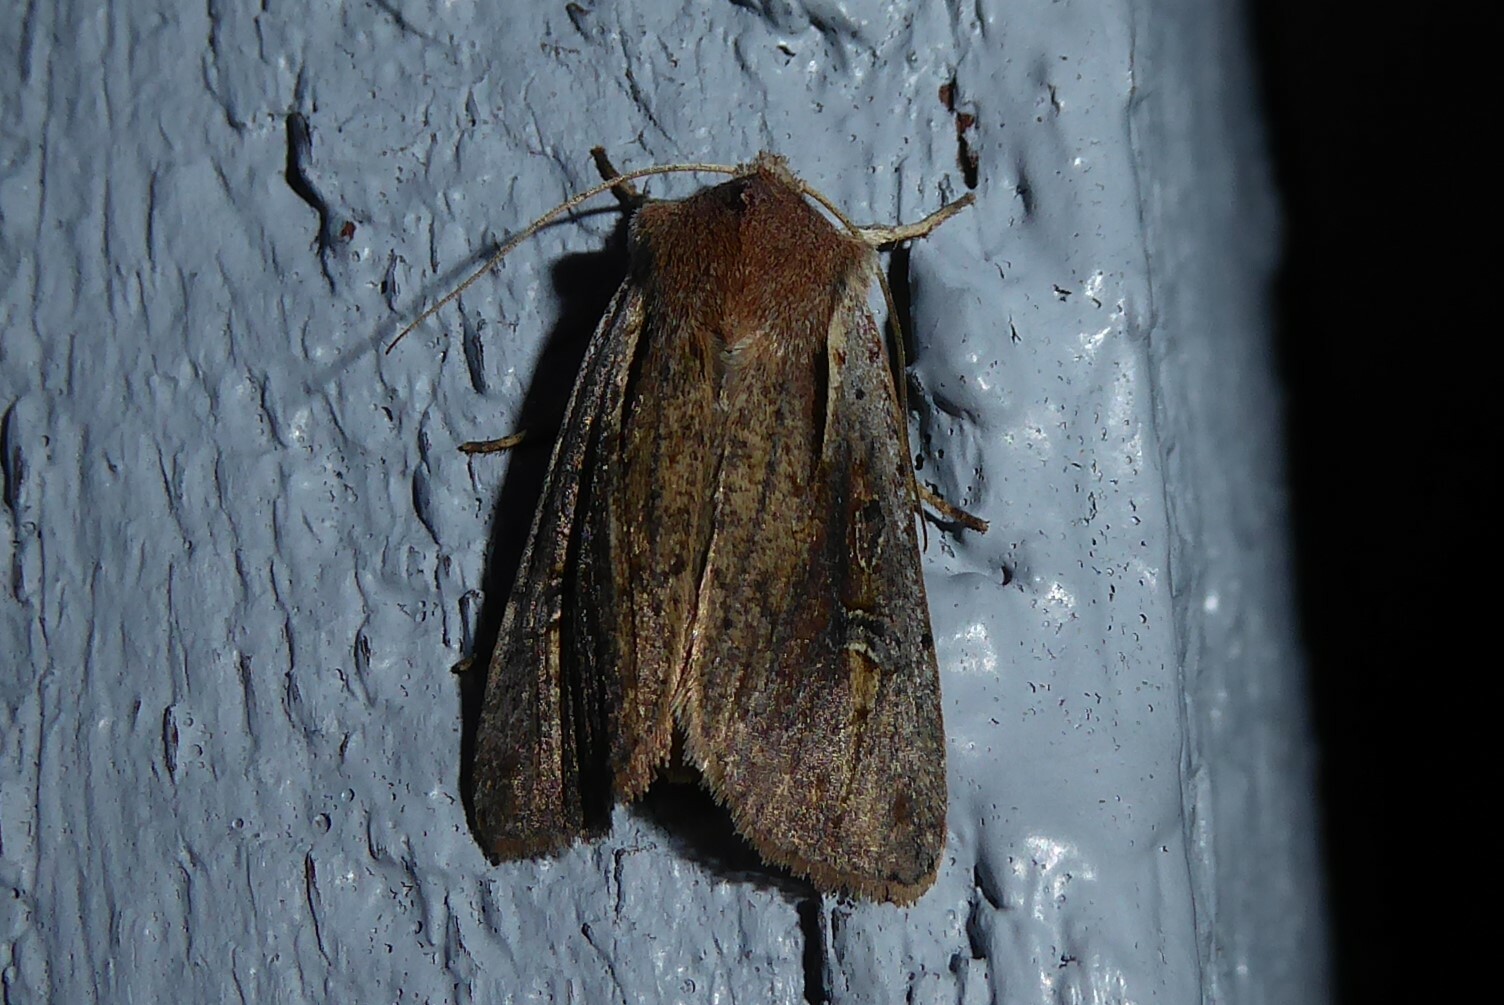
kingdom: Animalia
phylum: Arthropoda
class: Insecta
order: Lepidoptera
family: Noctuidae
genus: Ichneutica
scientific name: Ichneutica atristriga
